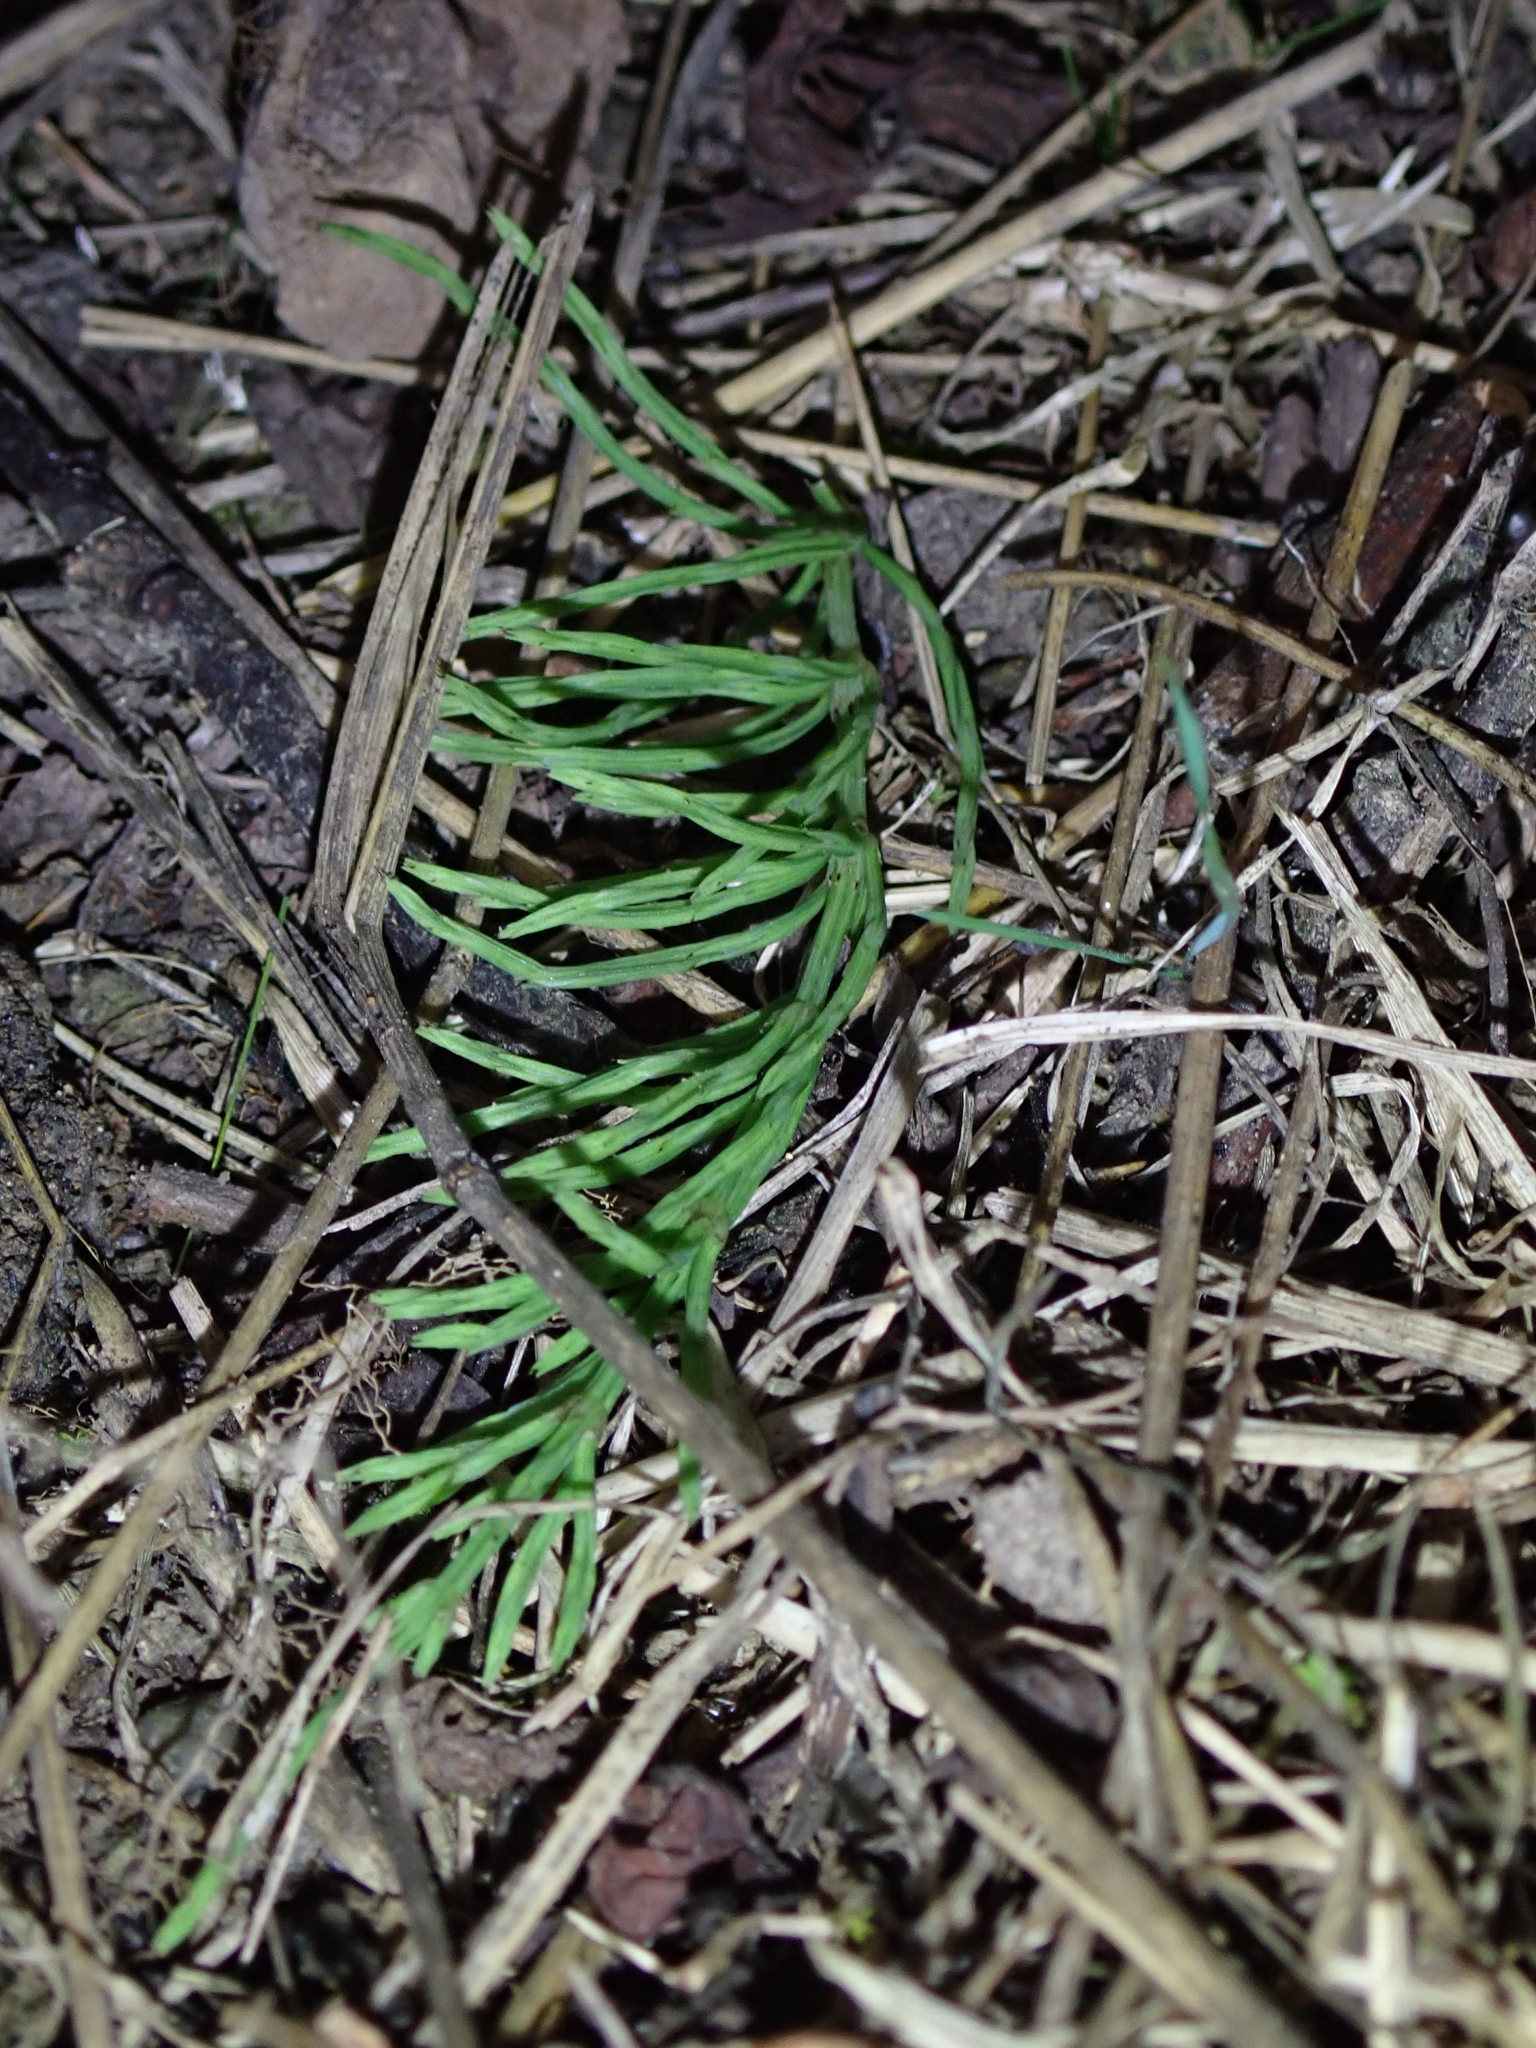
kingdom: Plantae
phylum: Tracheophyta
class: Polypodiopsida
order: Equisetales
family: Equisetaceae
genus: Equisetum
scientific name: Equisetum arvense
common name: Field horsetail
